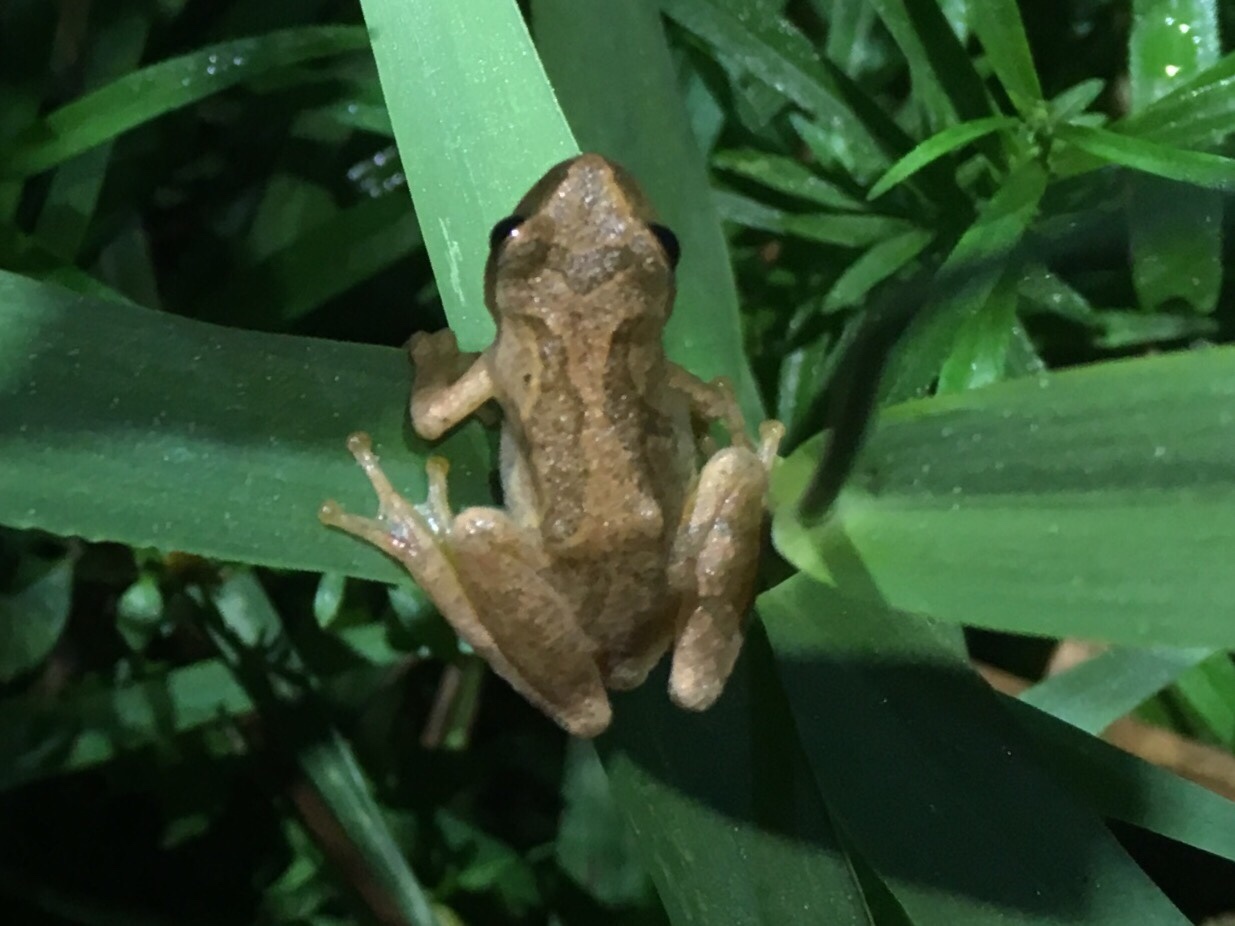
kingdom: Animalia
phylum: Chordata
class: Amphibia
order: Anura
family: Hylidae
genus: Pseudacris
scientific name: Pseudacris crucifer
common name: Spring peeper
